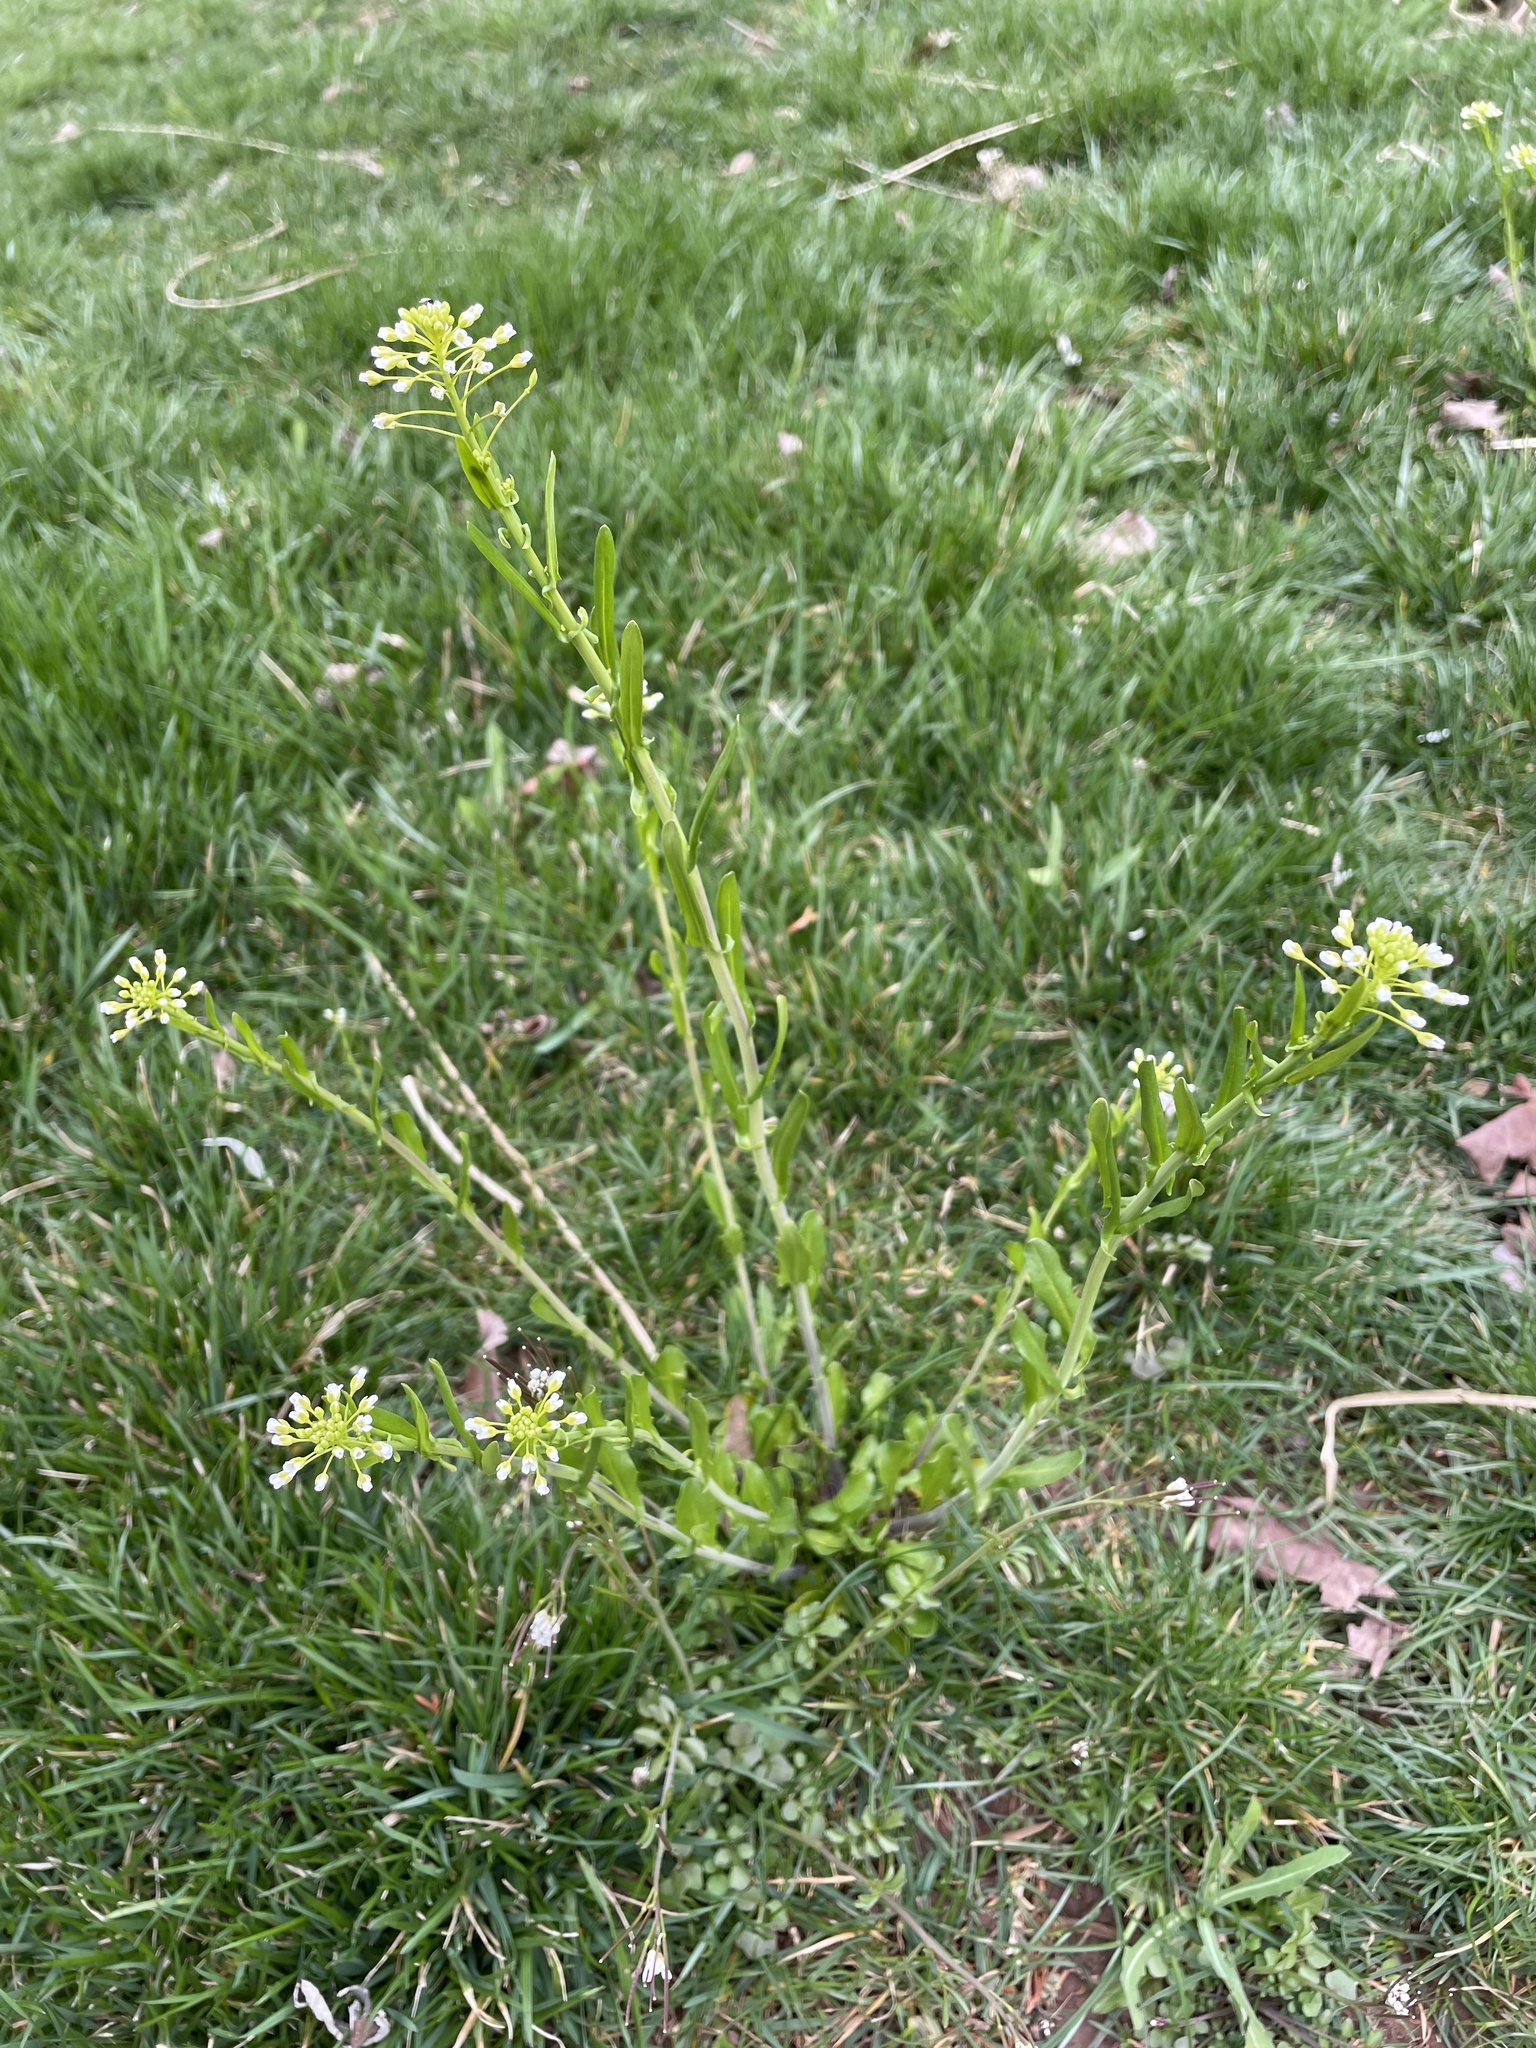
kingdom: Plantae
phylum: Tracheophyta
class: Magnoliopsida
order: Brassicales
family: Brassicaceae
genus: Mummenhoffia
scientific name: Mummenhoffia alliacea
